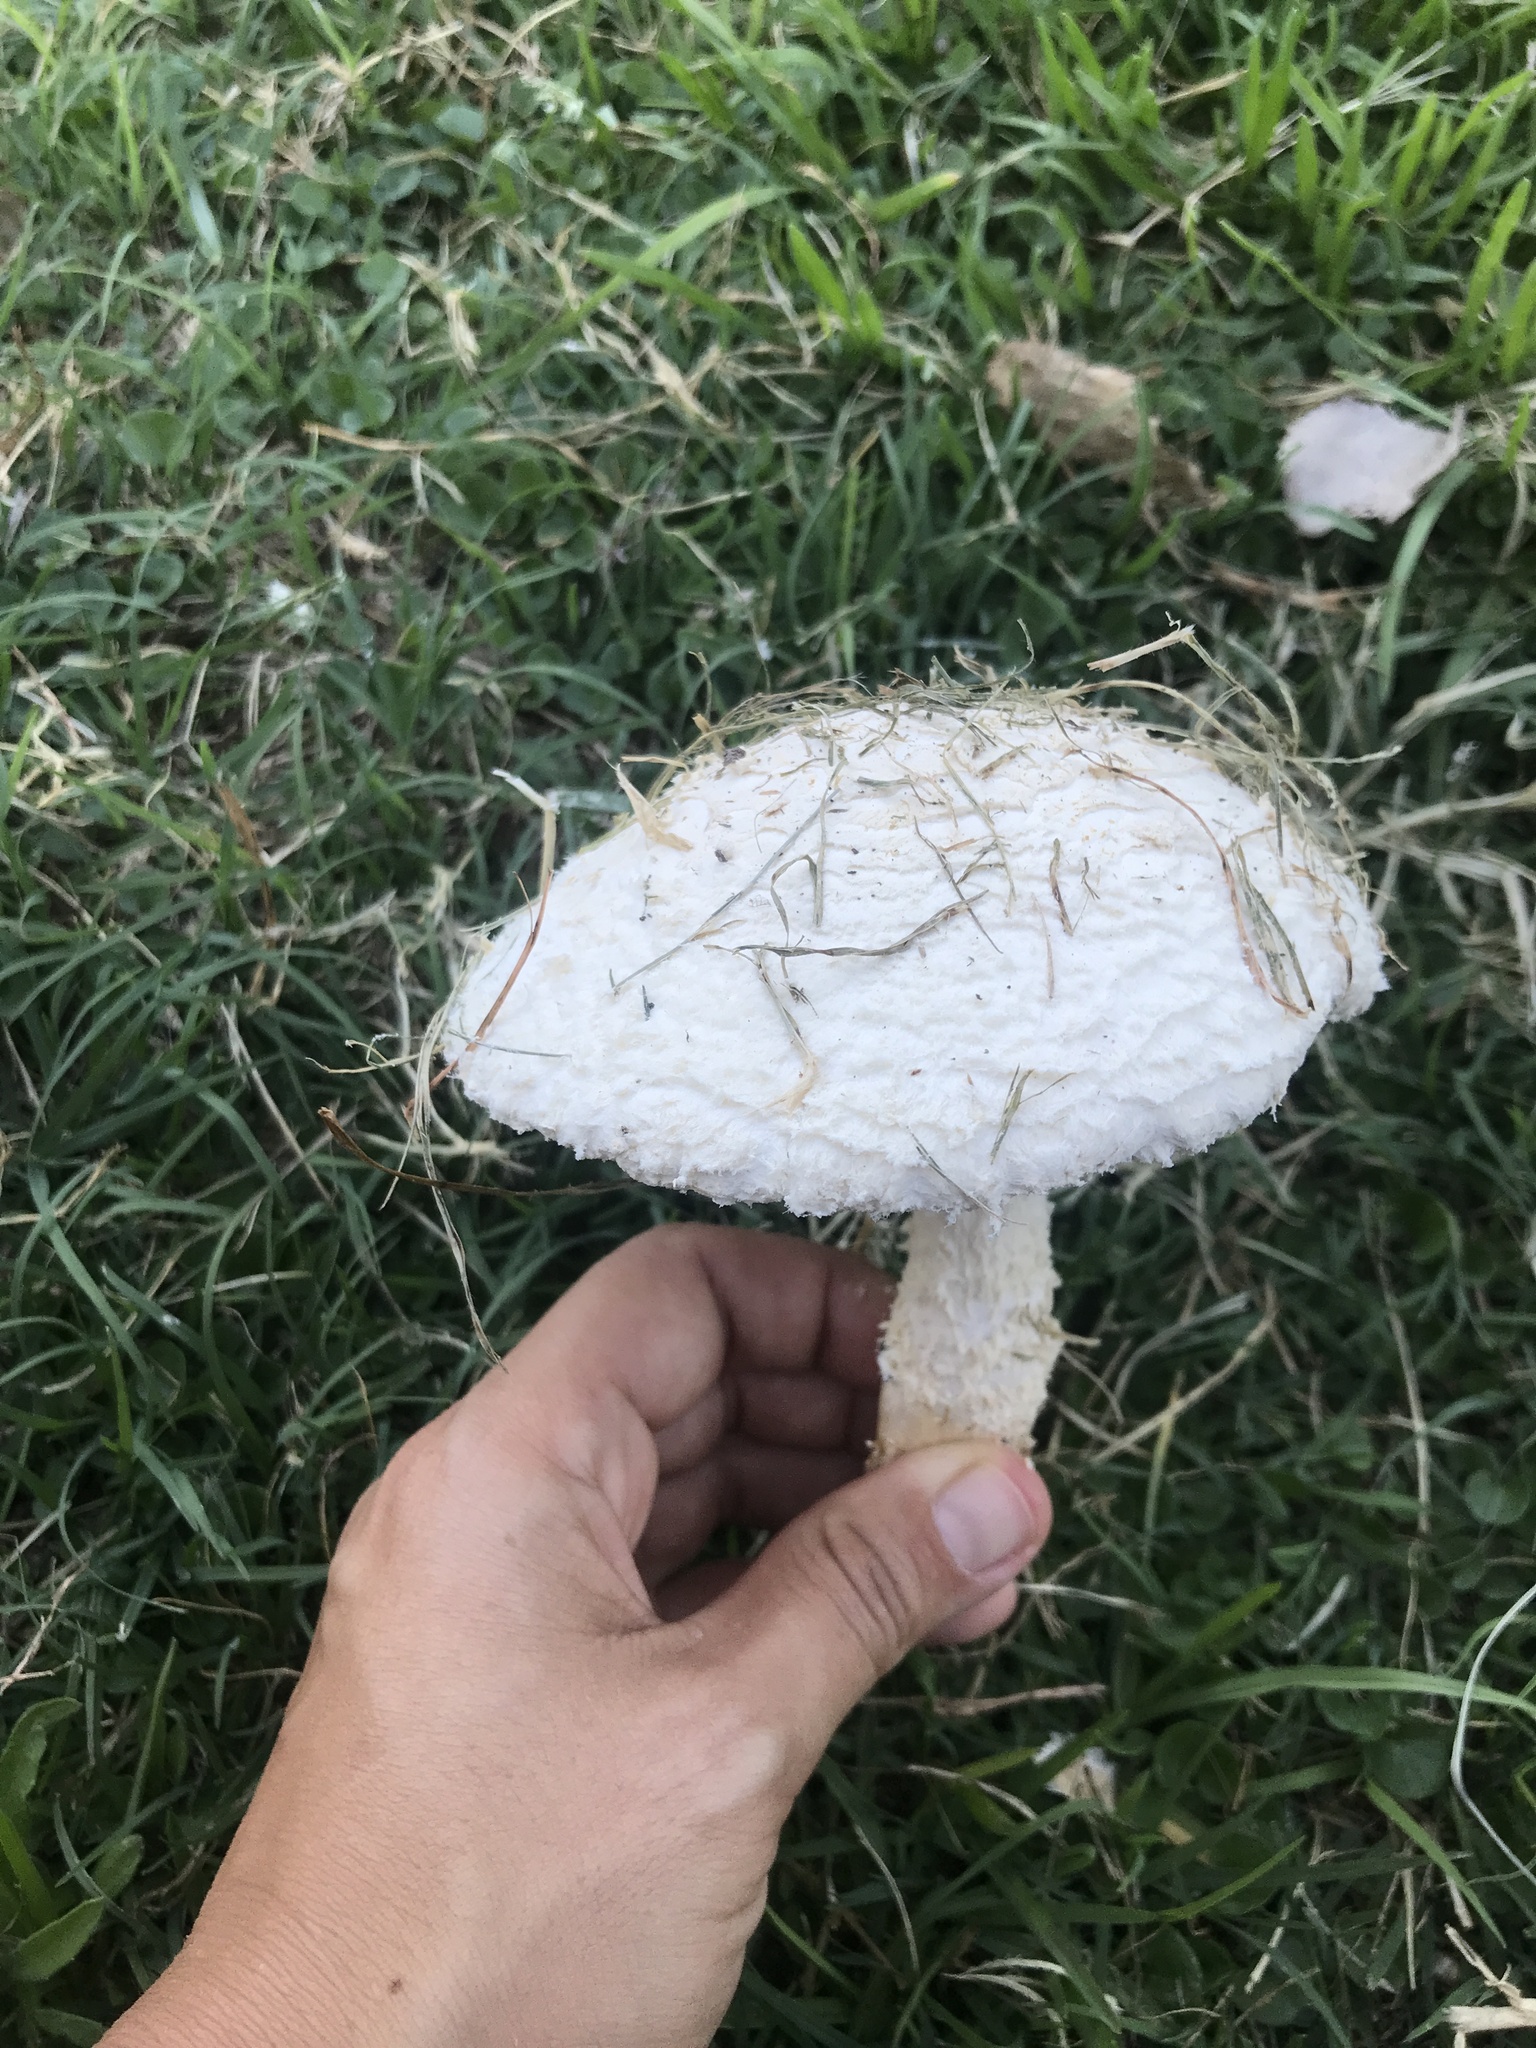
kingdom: Fungi
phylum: Basidiomycota
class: Agaricomycetes
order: Agaricales
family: Amanitaceae
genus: Aspidella
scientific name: Aspidella foetens
